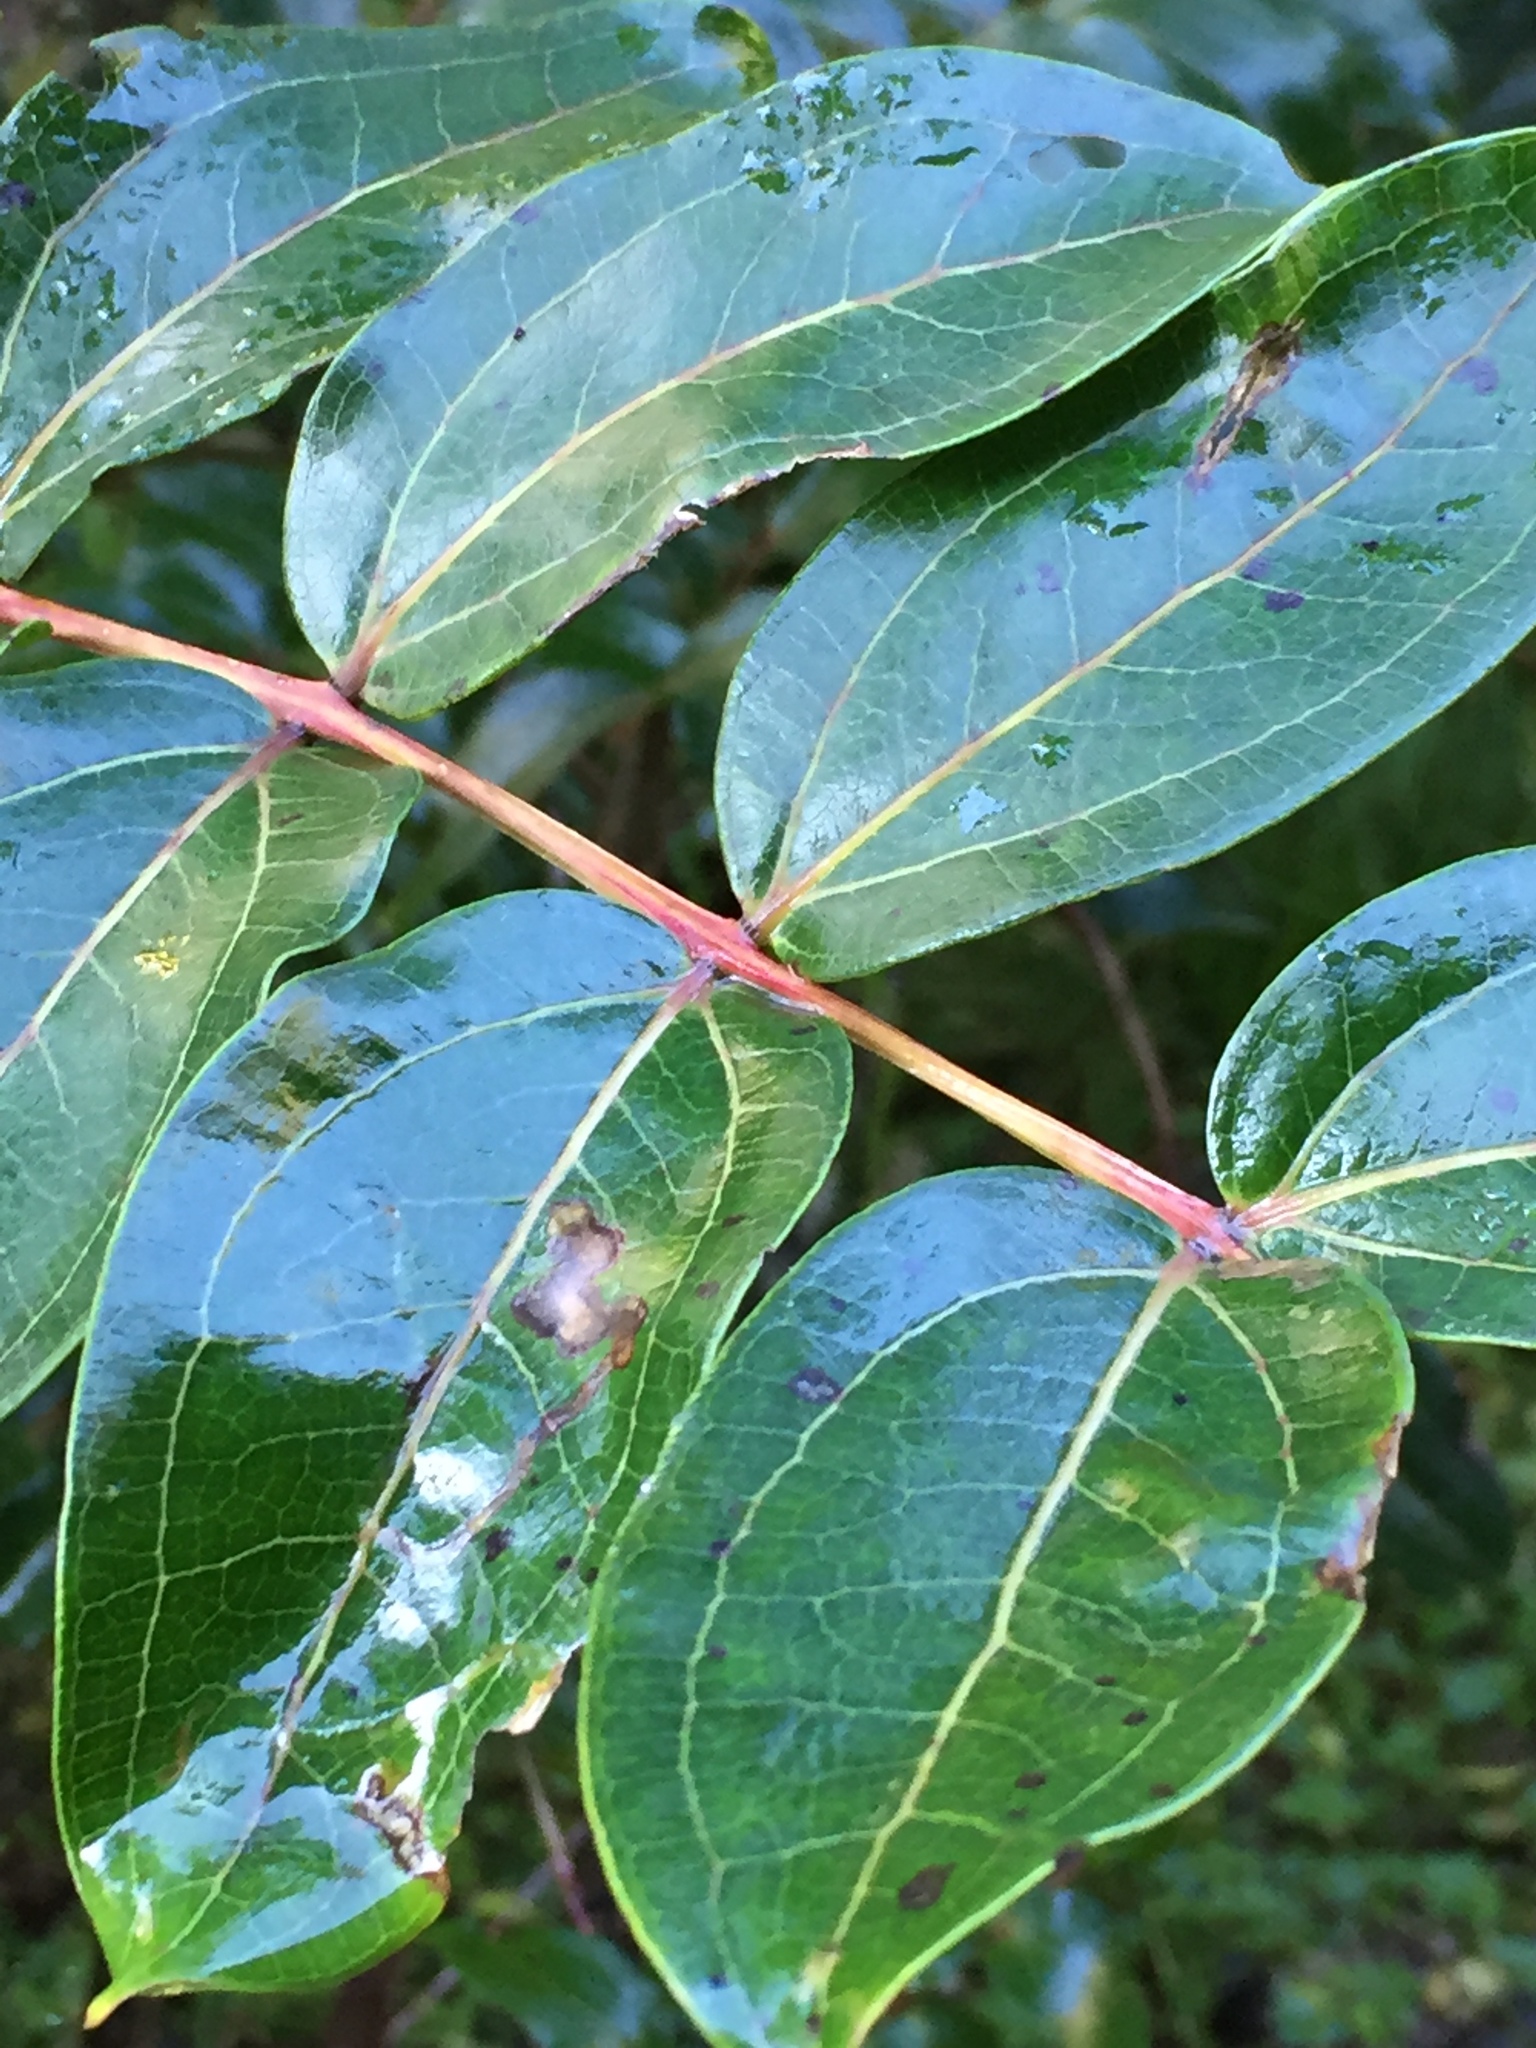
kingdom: Plantae
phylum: Tracheophyta
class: Magnoliopsida
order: Cucurbitales
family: Coriariaceae
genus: Coriaria
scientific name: Coriaria arborea
